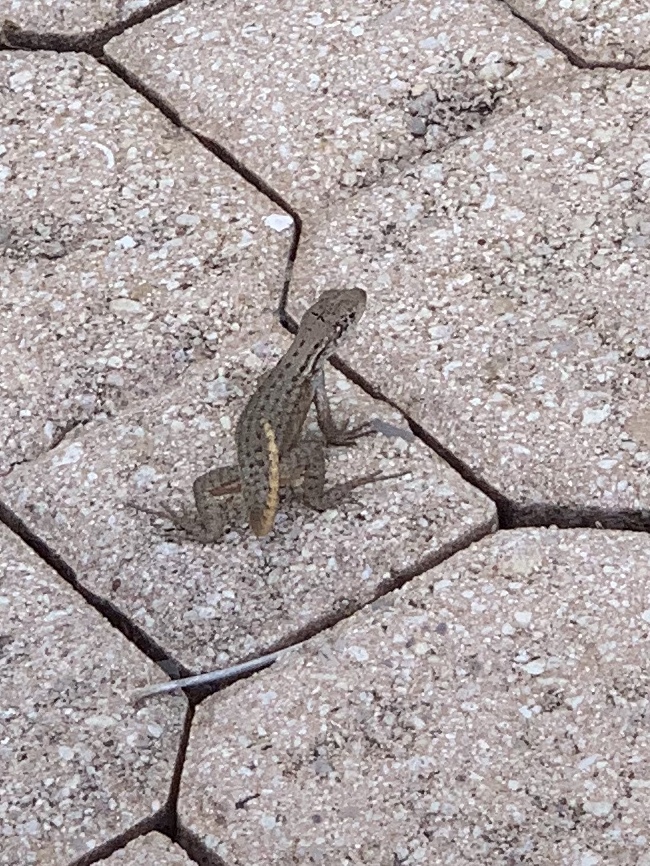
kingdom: Animalia
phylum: Chordata
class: Squamata
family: Leiocephalidae
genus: Leiocephalus
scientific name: Leiocephalus carinatus
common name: Northern curly-tailed lizard
